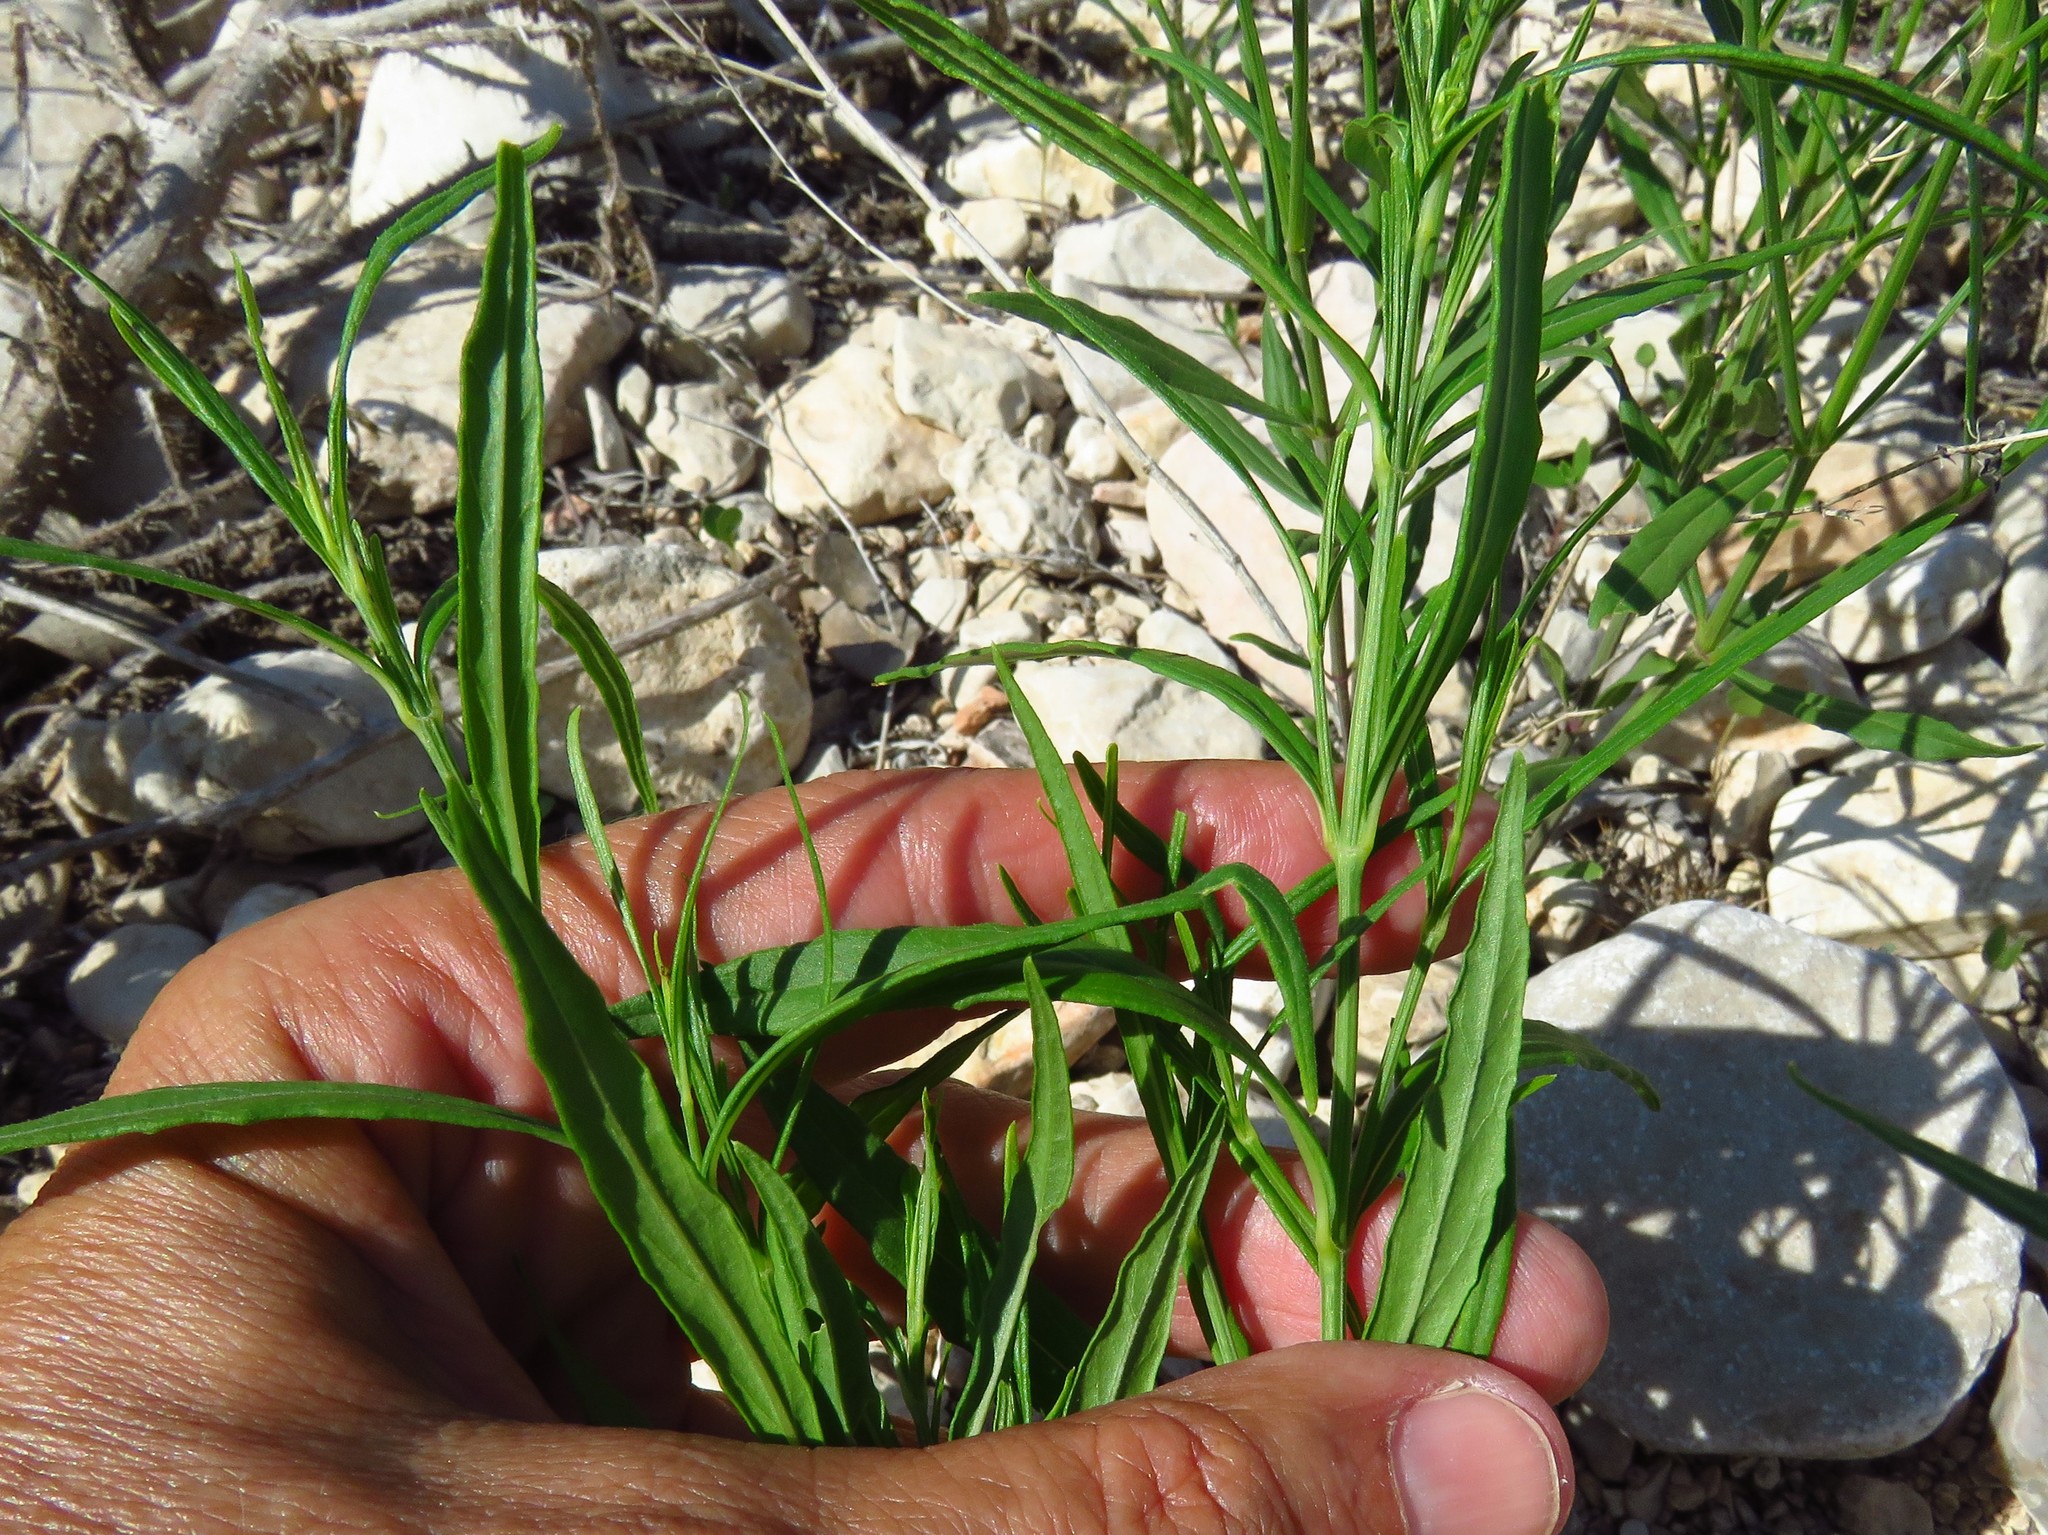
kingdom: Plantae
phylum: Tracheophyta
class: Magnoliopsida
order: Malpighiales
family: Violaceae
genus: Pombalia
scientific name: Pombalia verticillata
